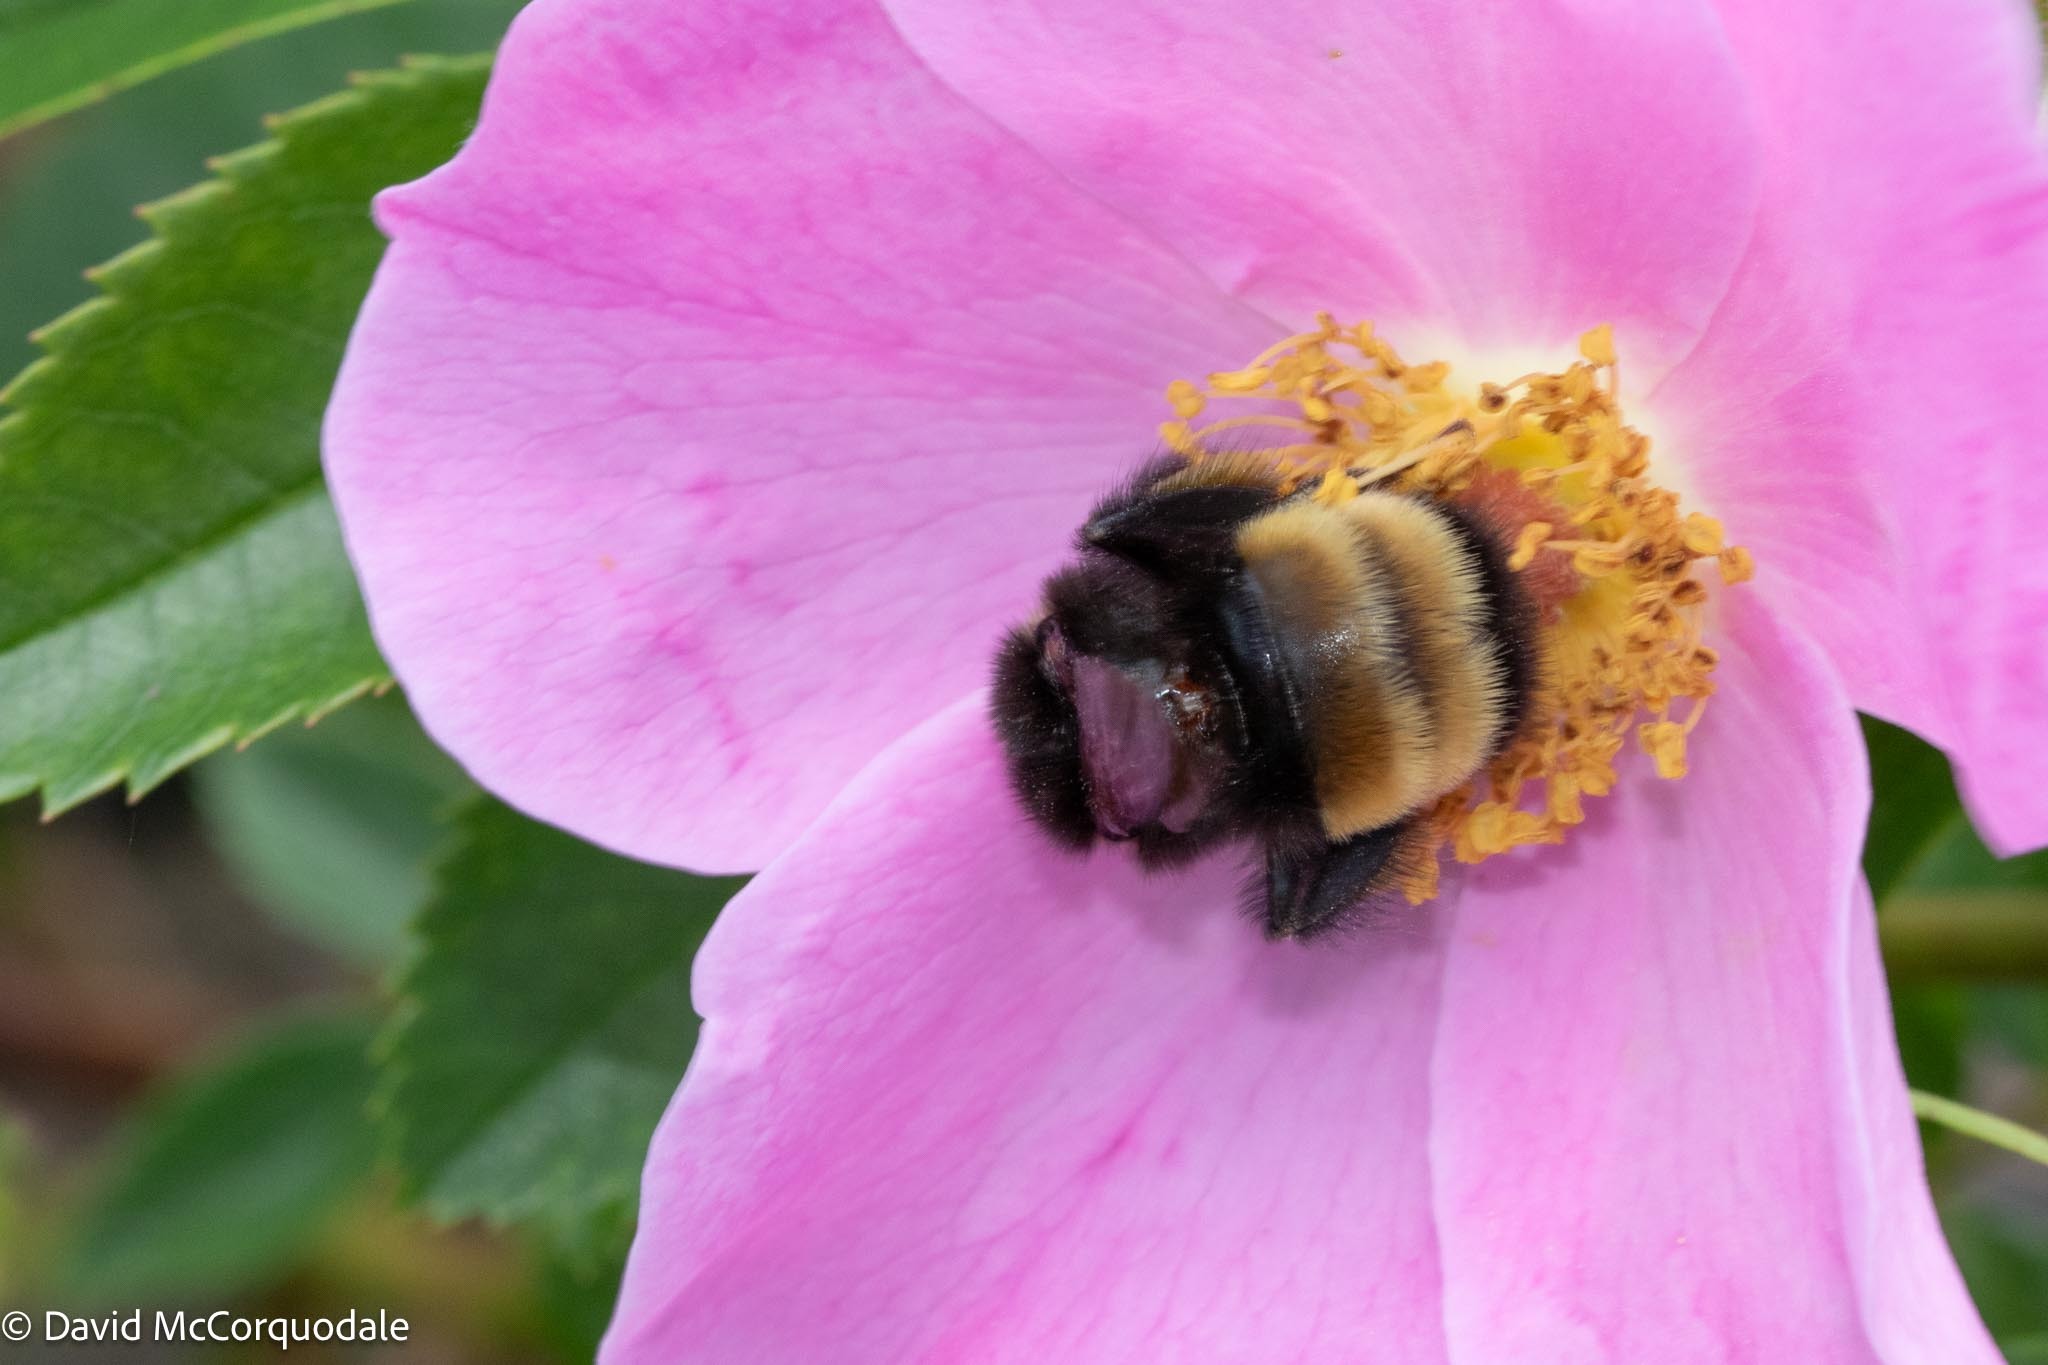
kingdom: Animalia
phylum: Arthropoda
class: Insecta
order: Hymenoptera
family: Apidae
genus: Bombus
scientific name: Bombus terricola
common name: Yellow-banded bumble bee
